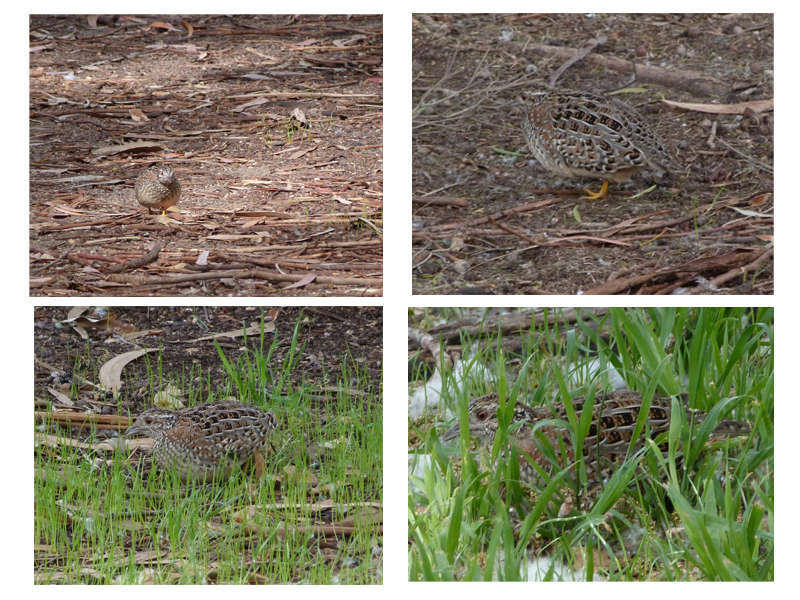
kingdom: Animalia
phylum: Chordata
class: Aves
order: Charadriiformes
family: Turnicidae
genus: Turnix
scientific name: Turnix varius
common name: Painted buttonquail
